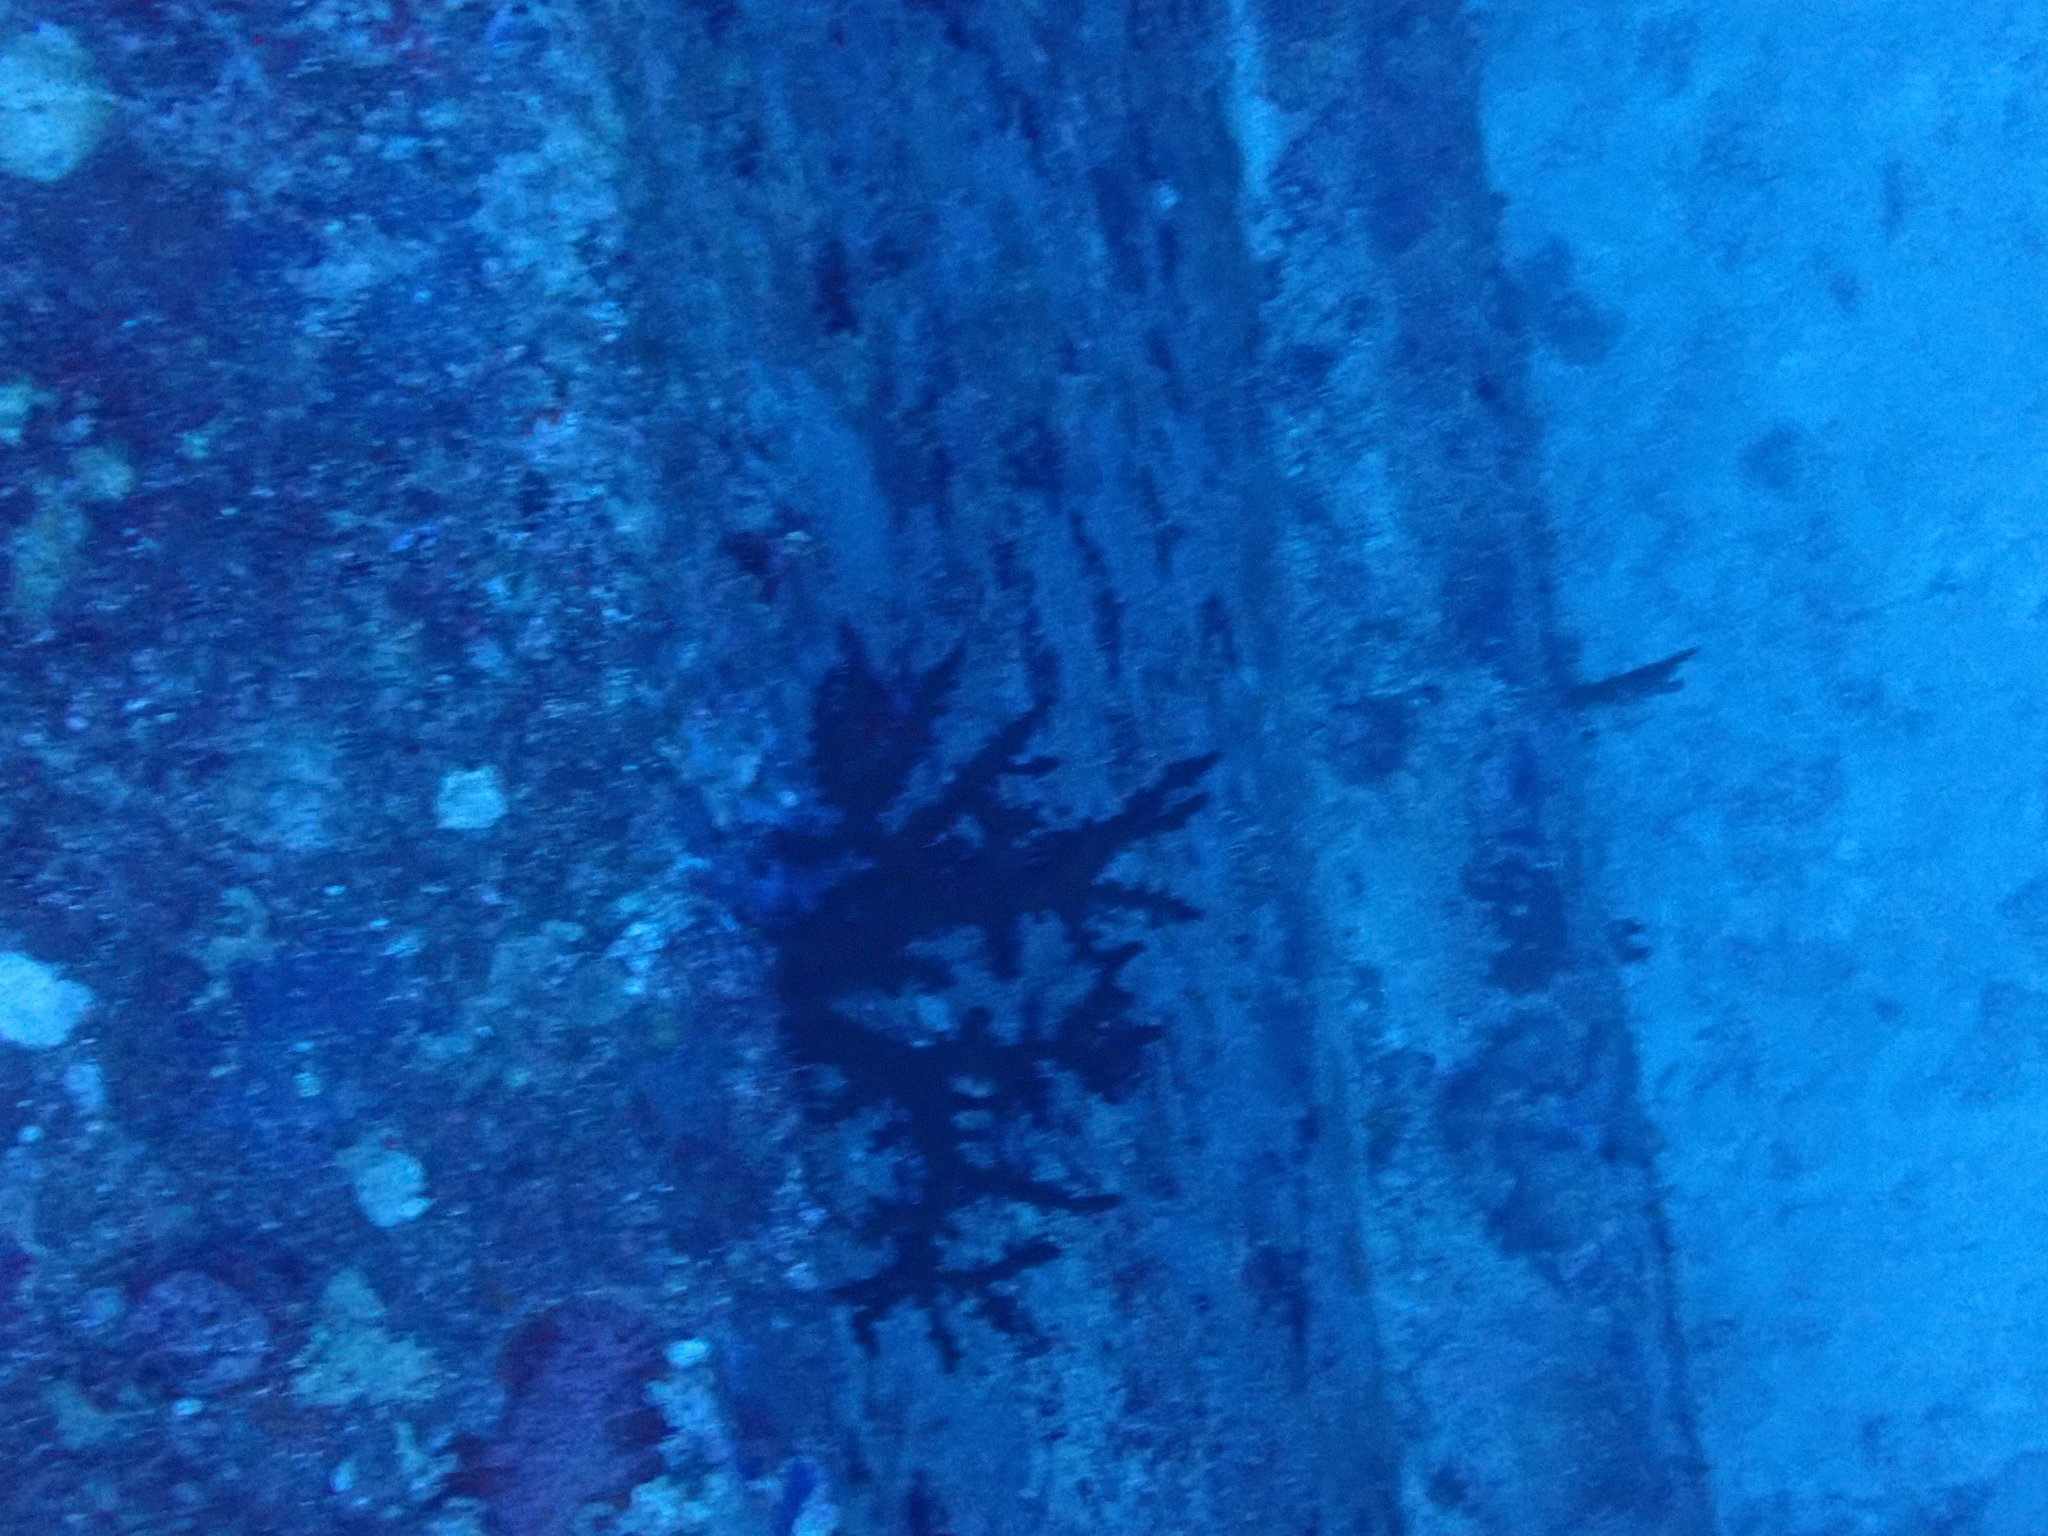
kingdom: Animalia
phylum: Cnidaria
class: Anthozoa
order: Scleractinia
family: Dendrophylliidae
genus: Tubastraea
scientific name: Tubastraea micranthus
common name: Black sun coral
